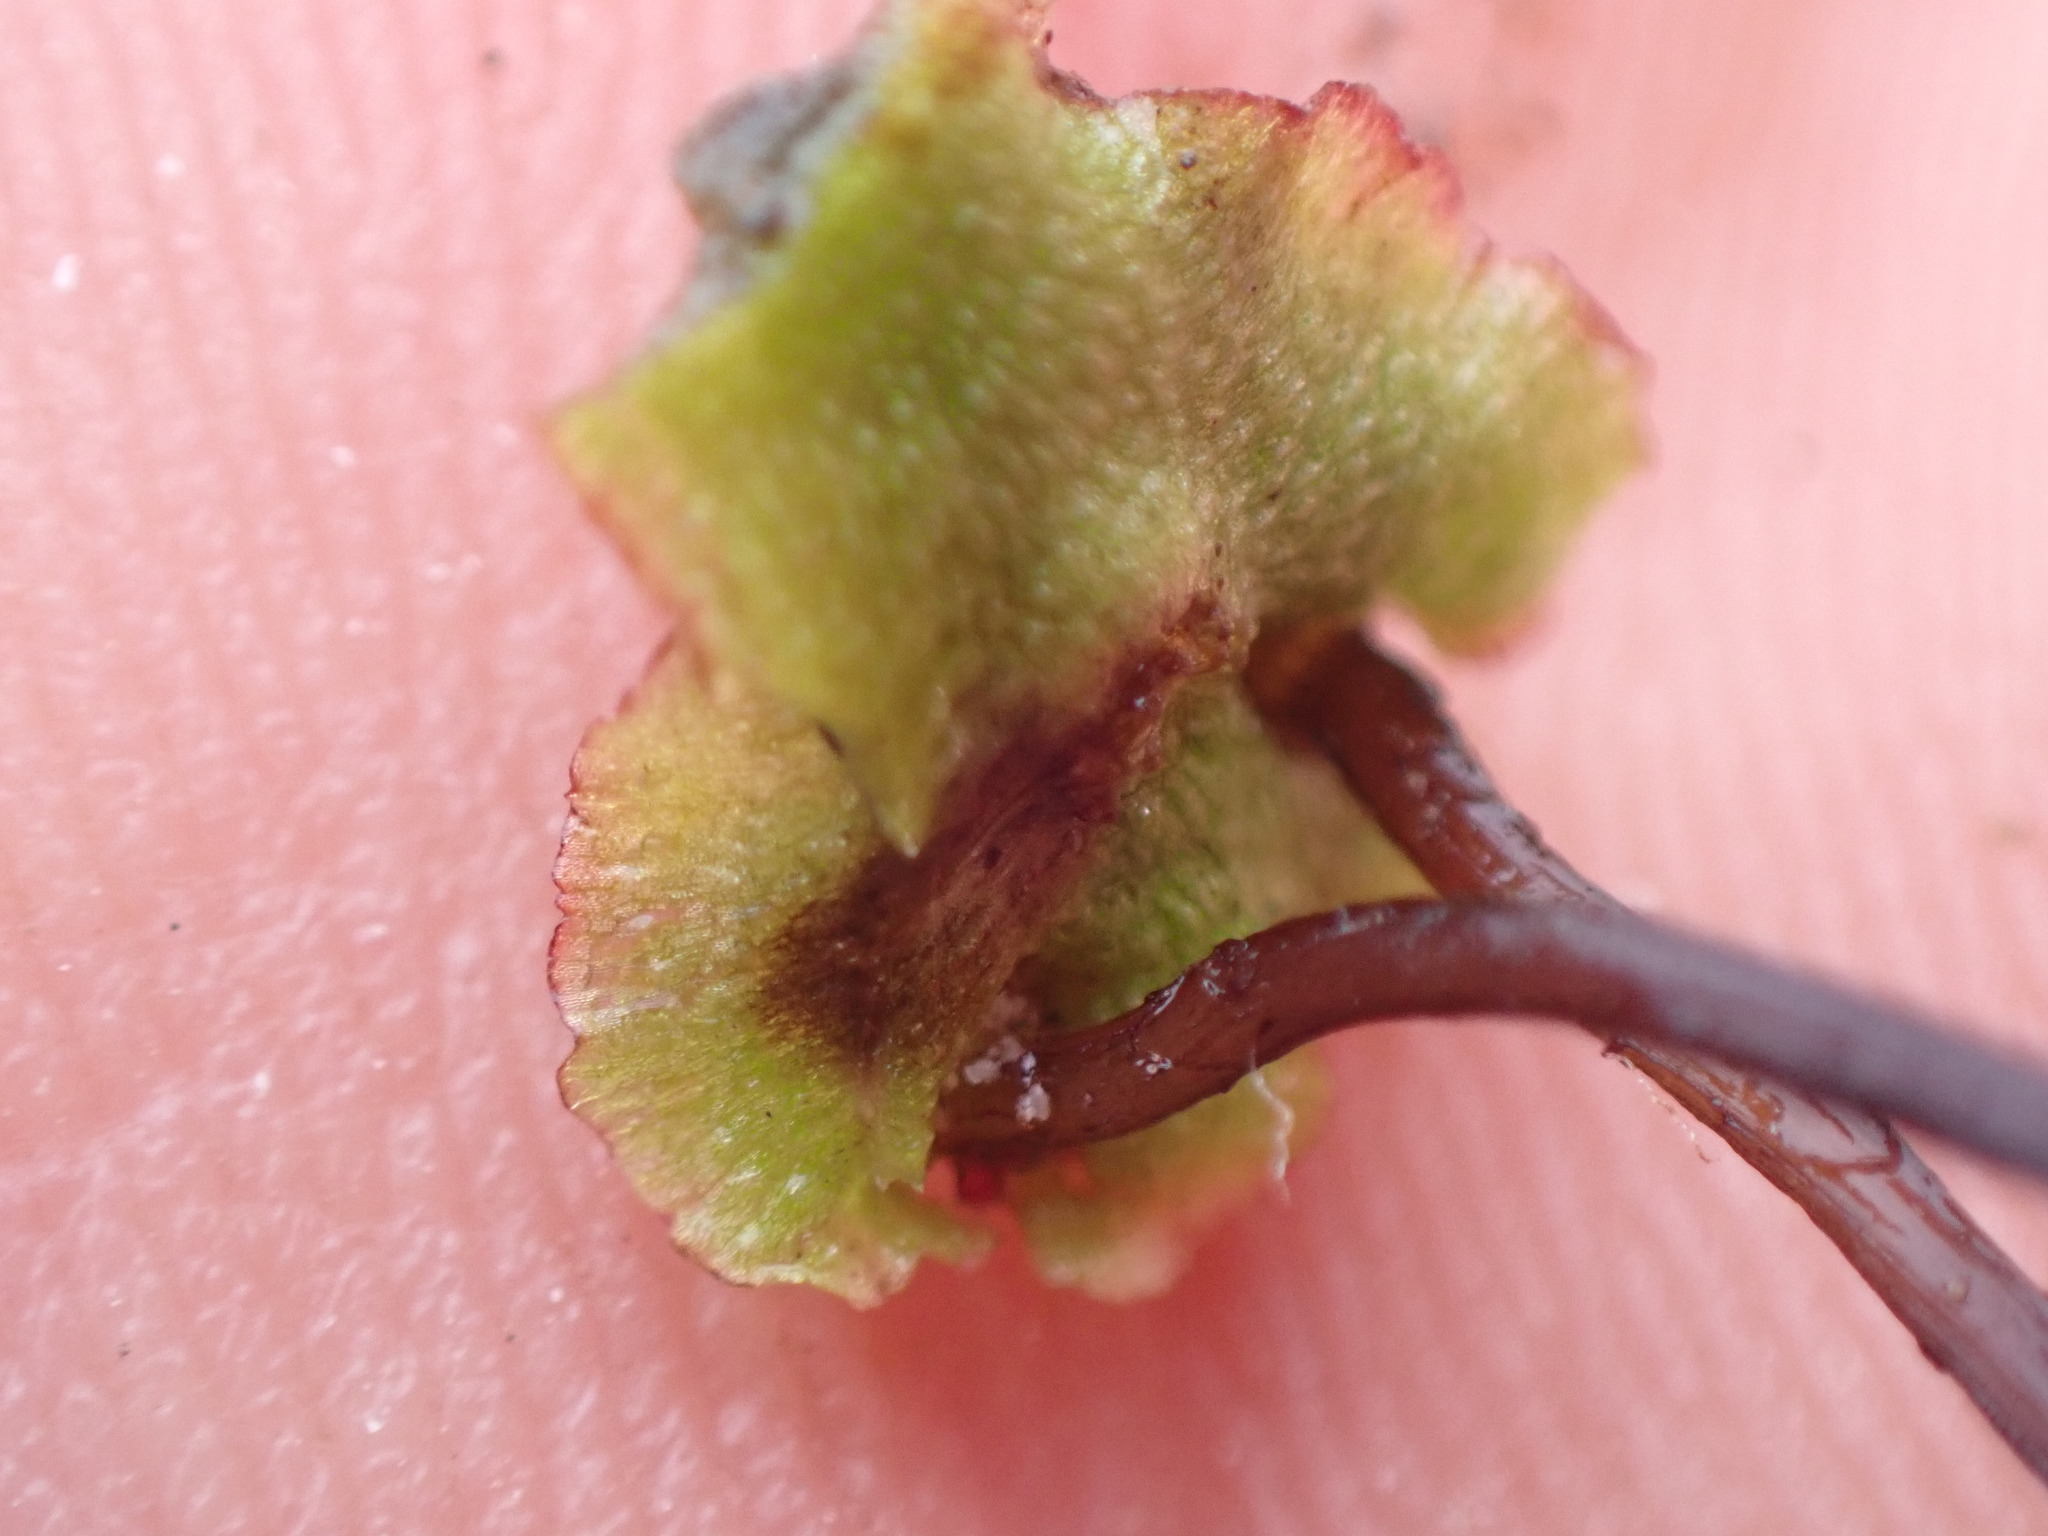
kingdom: Plantae
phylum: Marchantiophyta
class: Marchantiopsida
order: Marchantiales
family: Aytoniaceae
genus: Asterella
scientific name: Asterella lindenbergiana
